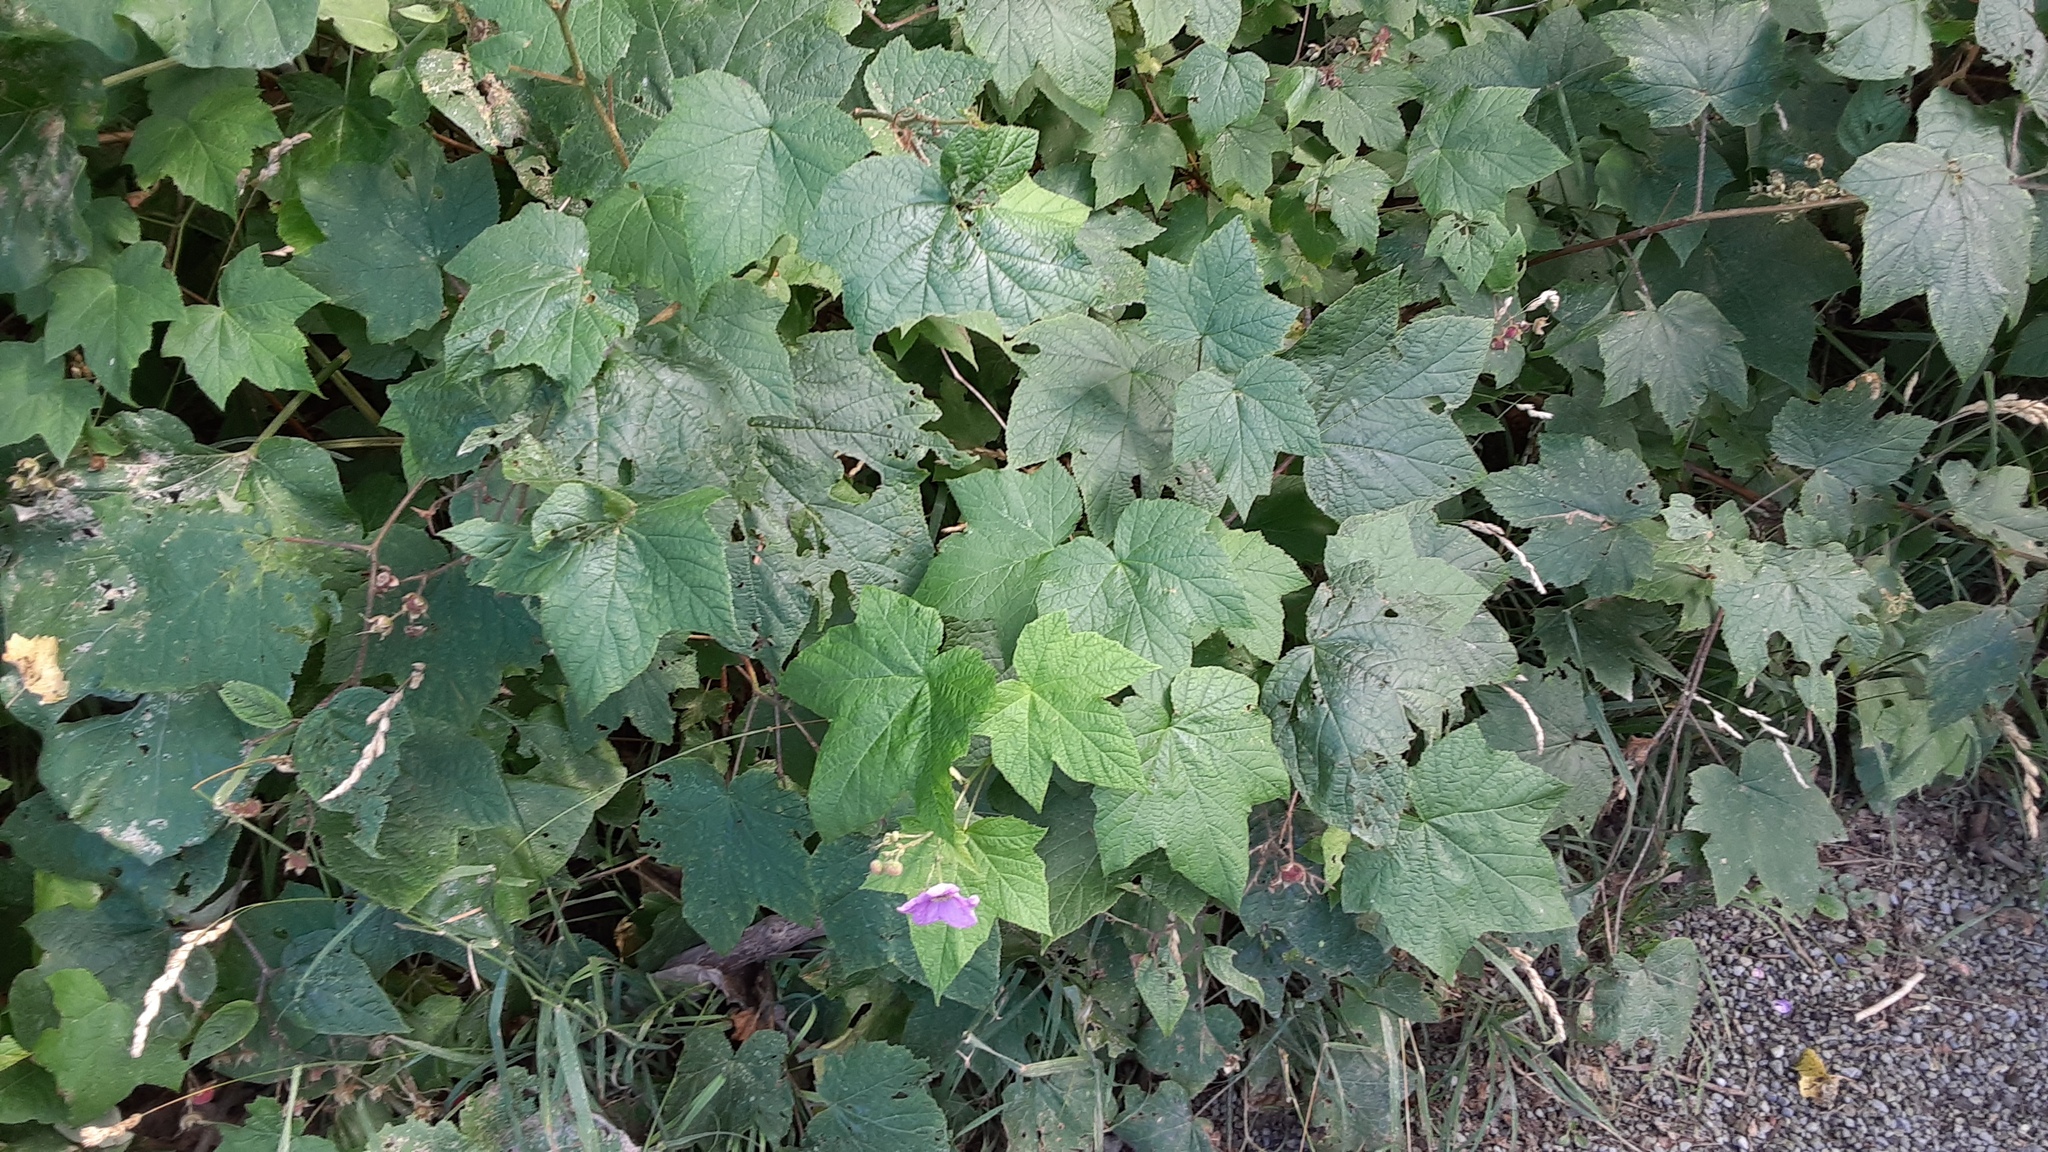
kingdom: Plantae
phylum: Tracheophyta
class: Magnoliopsida
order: Rosales
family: Rosaceae
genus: Rubus
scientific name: Rubus odoratus
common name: Purple-flowered raspberry
